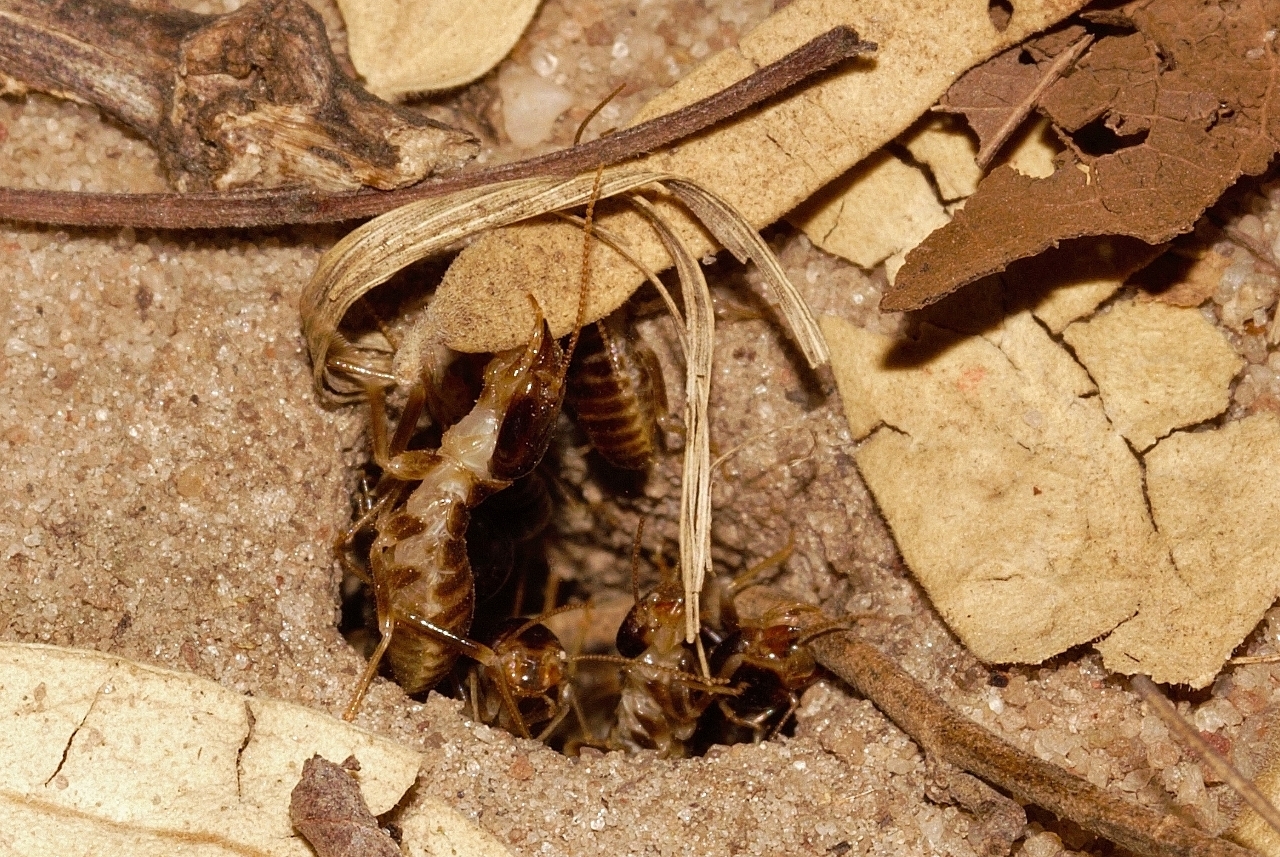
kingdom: Animalia
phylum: Arthropoda
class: Insecta
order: Blattodea
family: Hodotermitidae
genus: Hodotermes
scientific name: Hodotermes mossambicus
